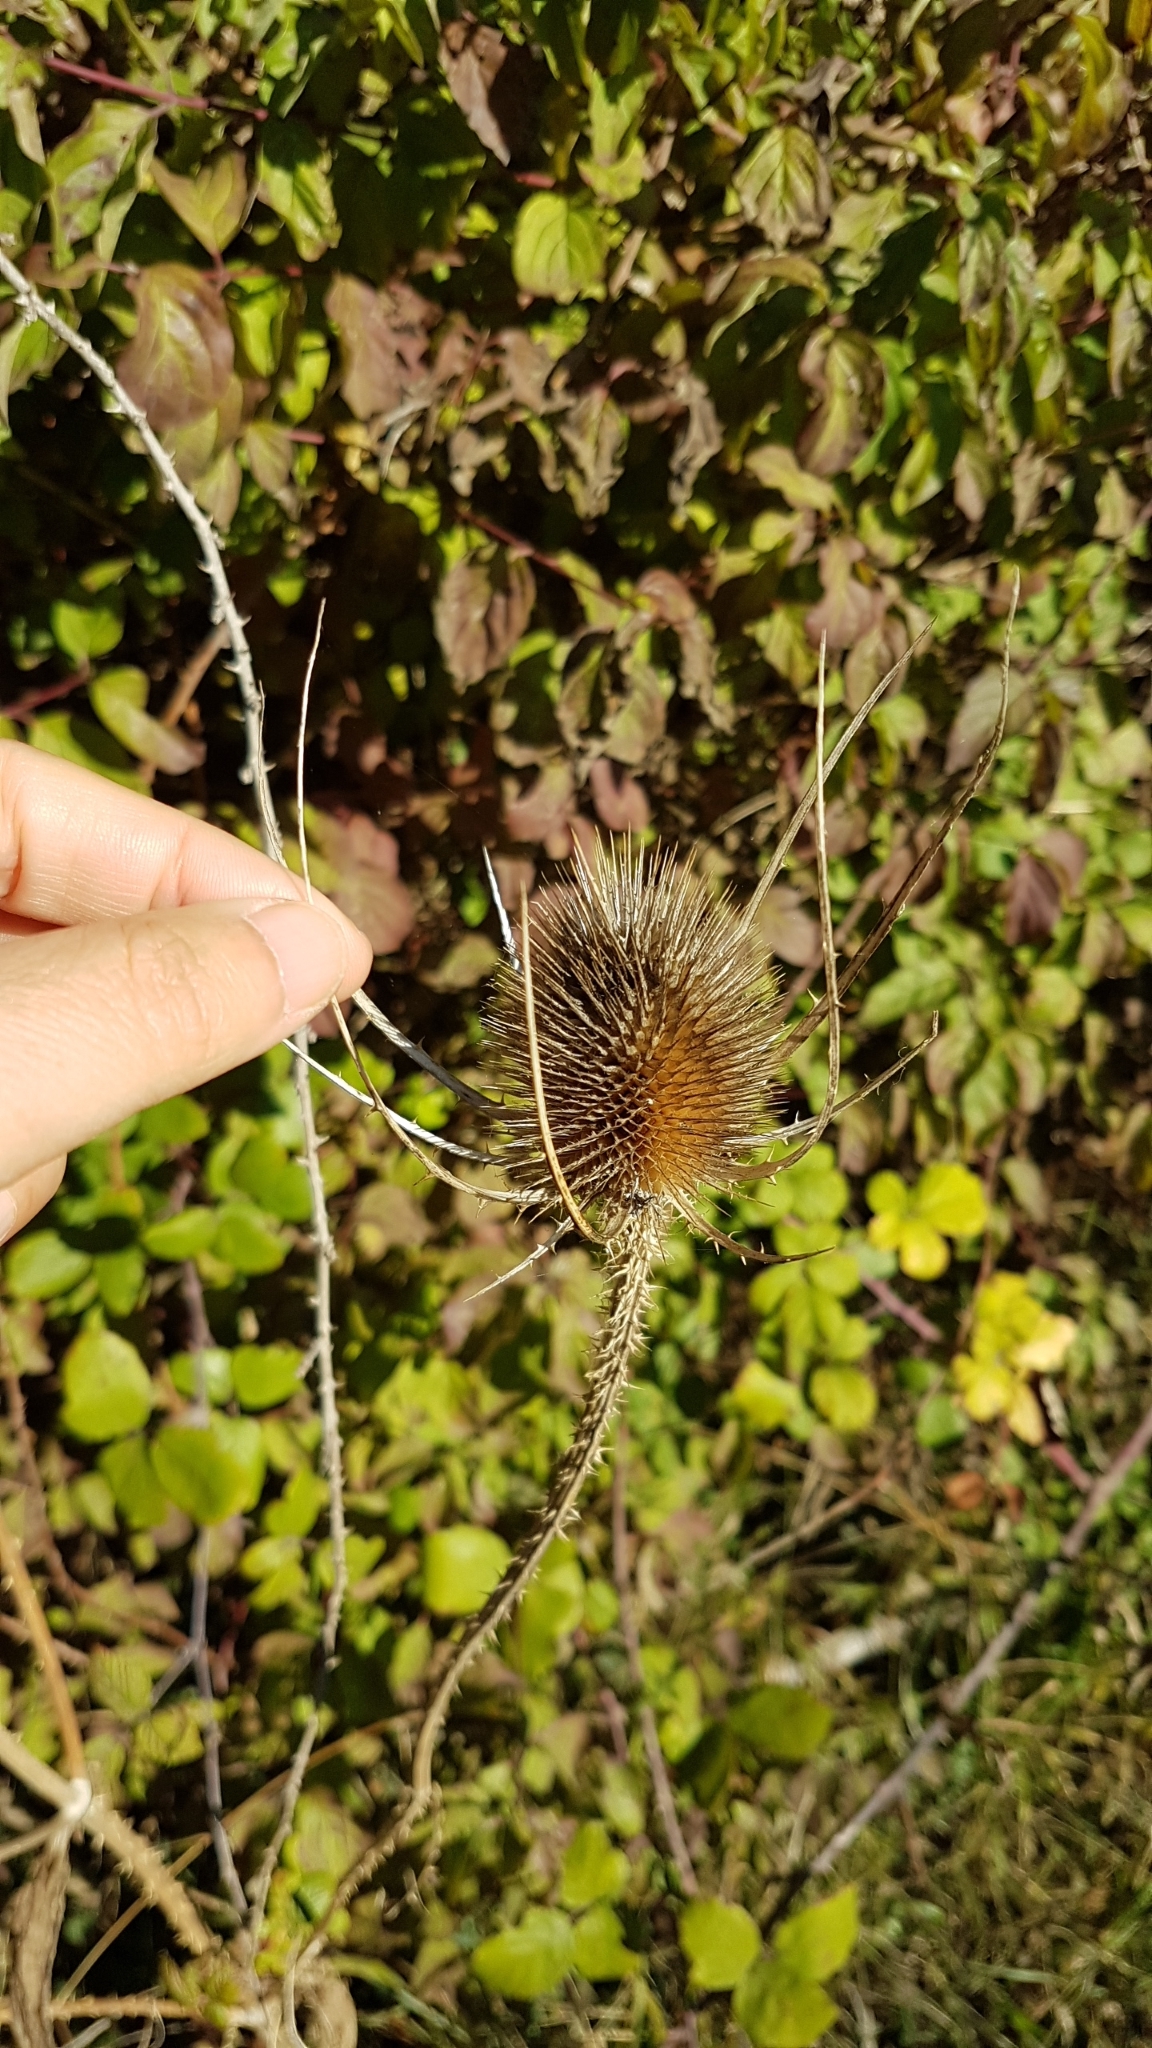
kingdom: Plantae
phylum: Tracheophyta
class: Magnoliopsida
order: Dipsacales
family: Caprifoliaceae
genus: Dipsacus
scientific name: Dipsacus fullonum
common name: Teasel
